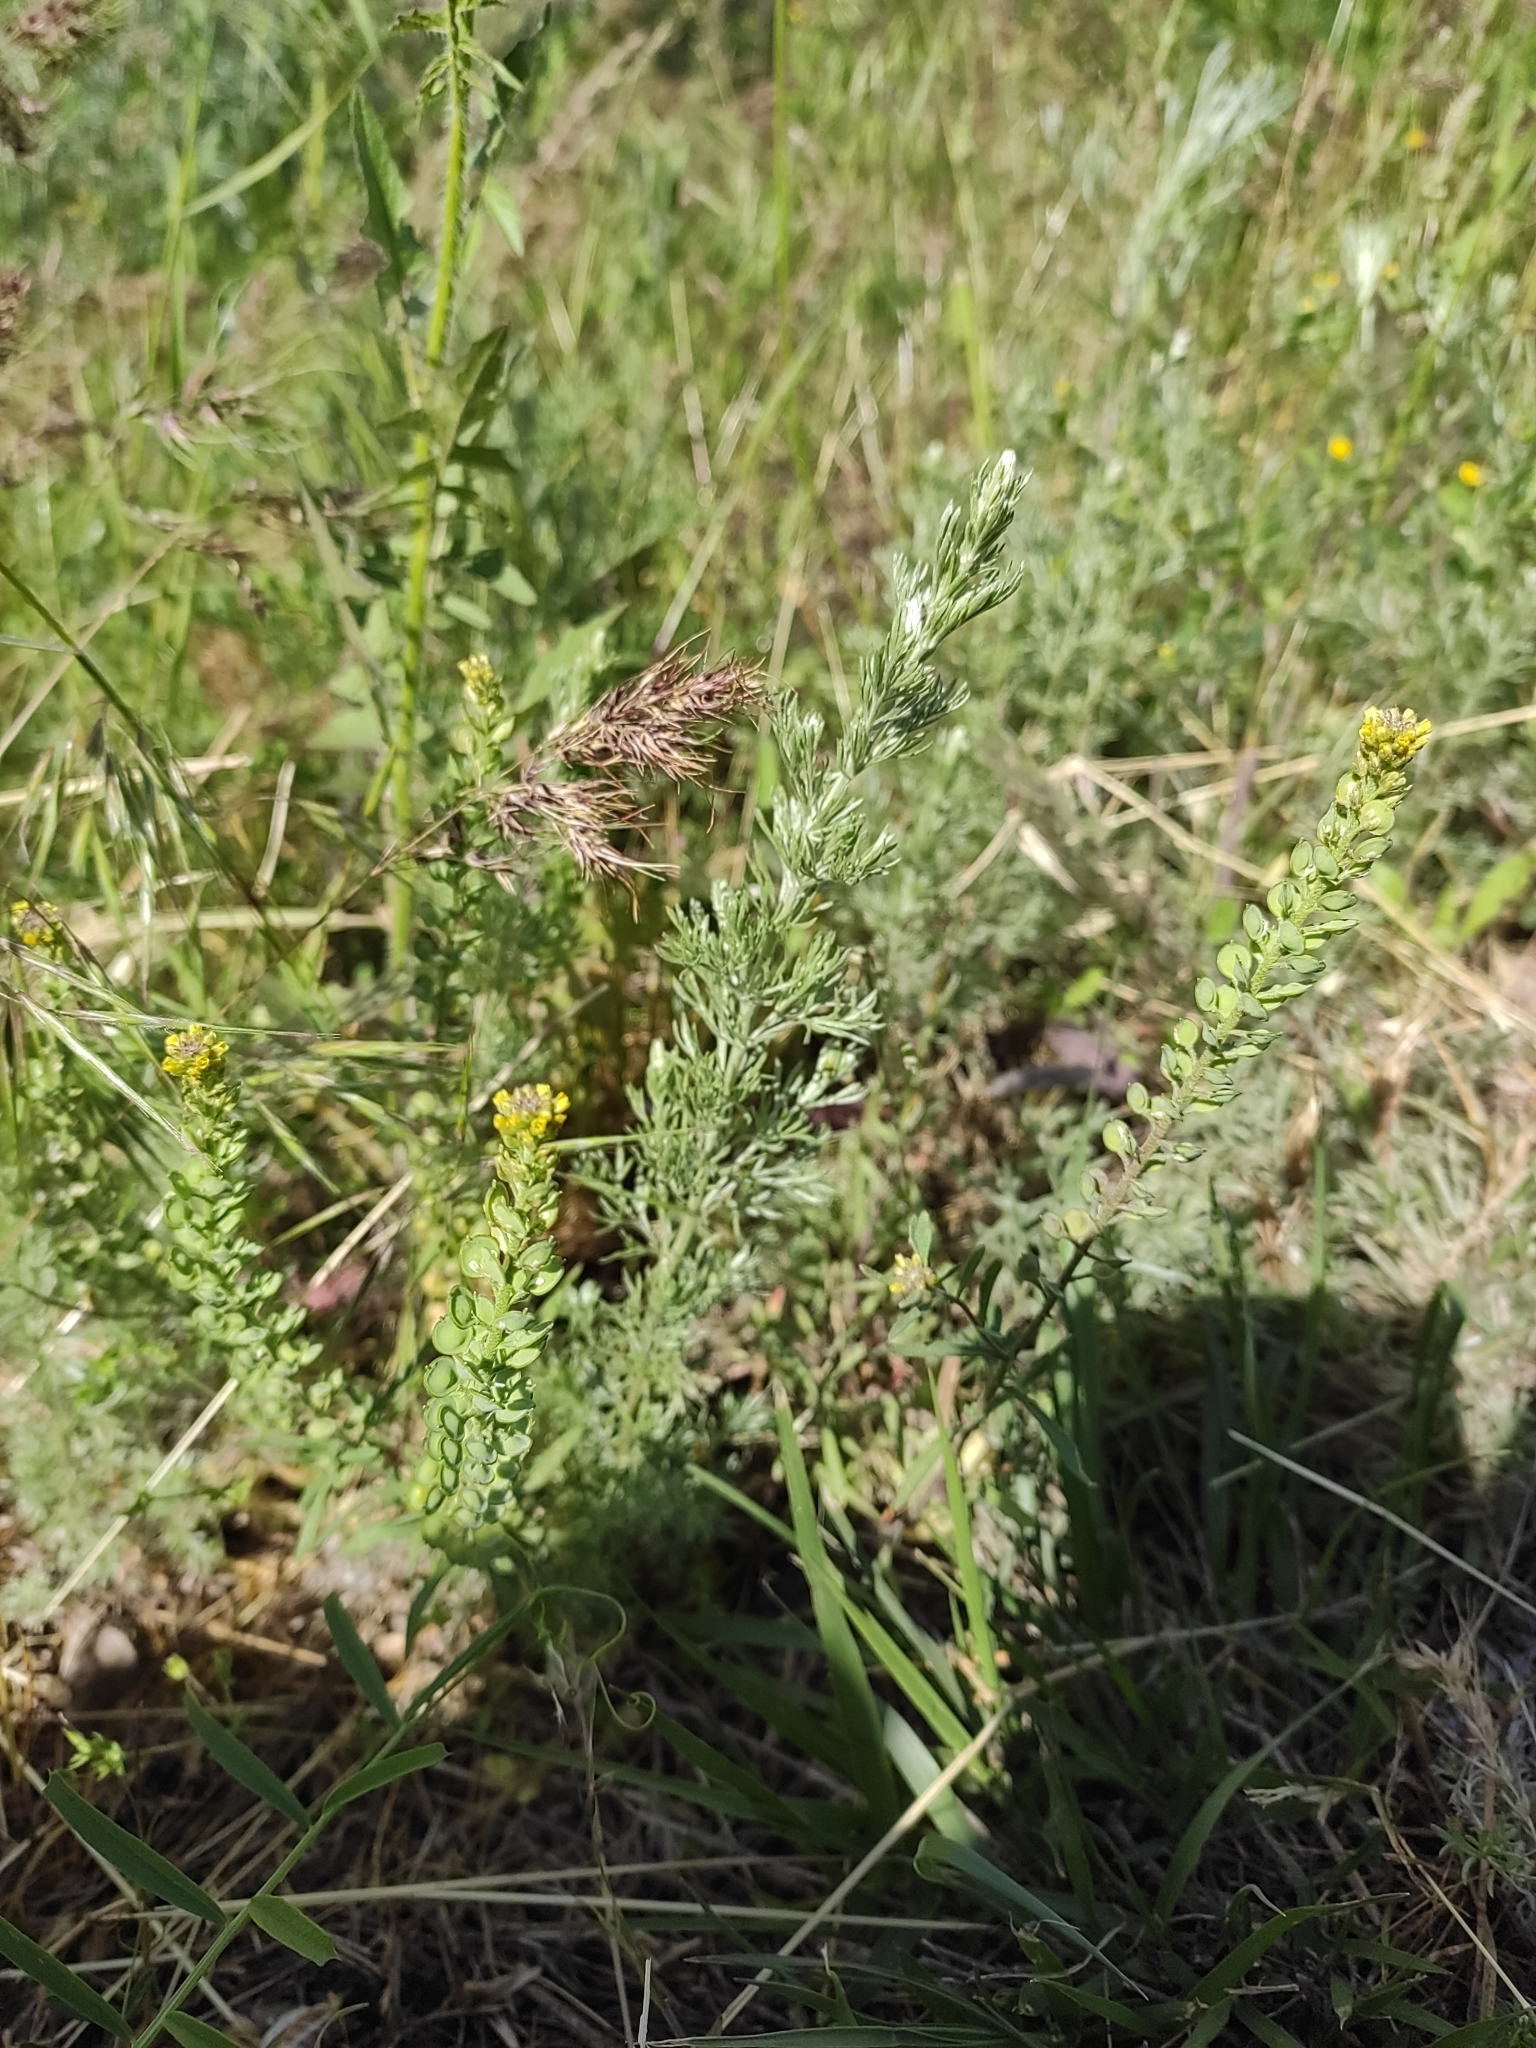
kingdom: Plantae
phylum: Tracheophyta
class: Magnoliopsida
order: Brassicales
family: Brassicaceae
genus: Alyssum
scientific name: Alyssum turkestanicum
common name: Desert alyssum
